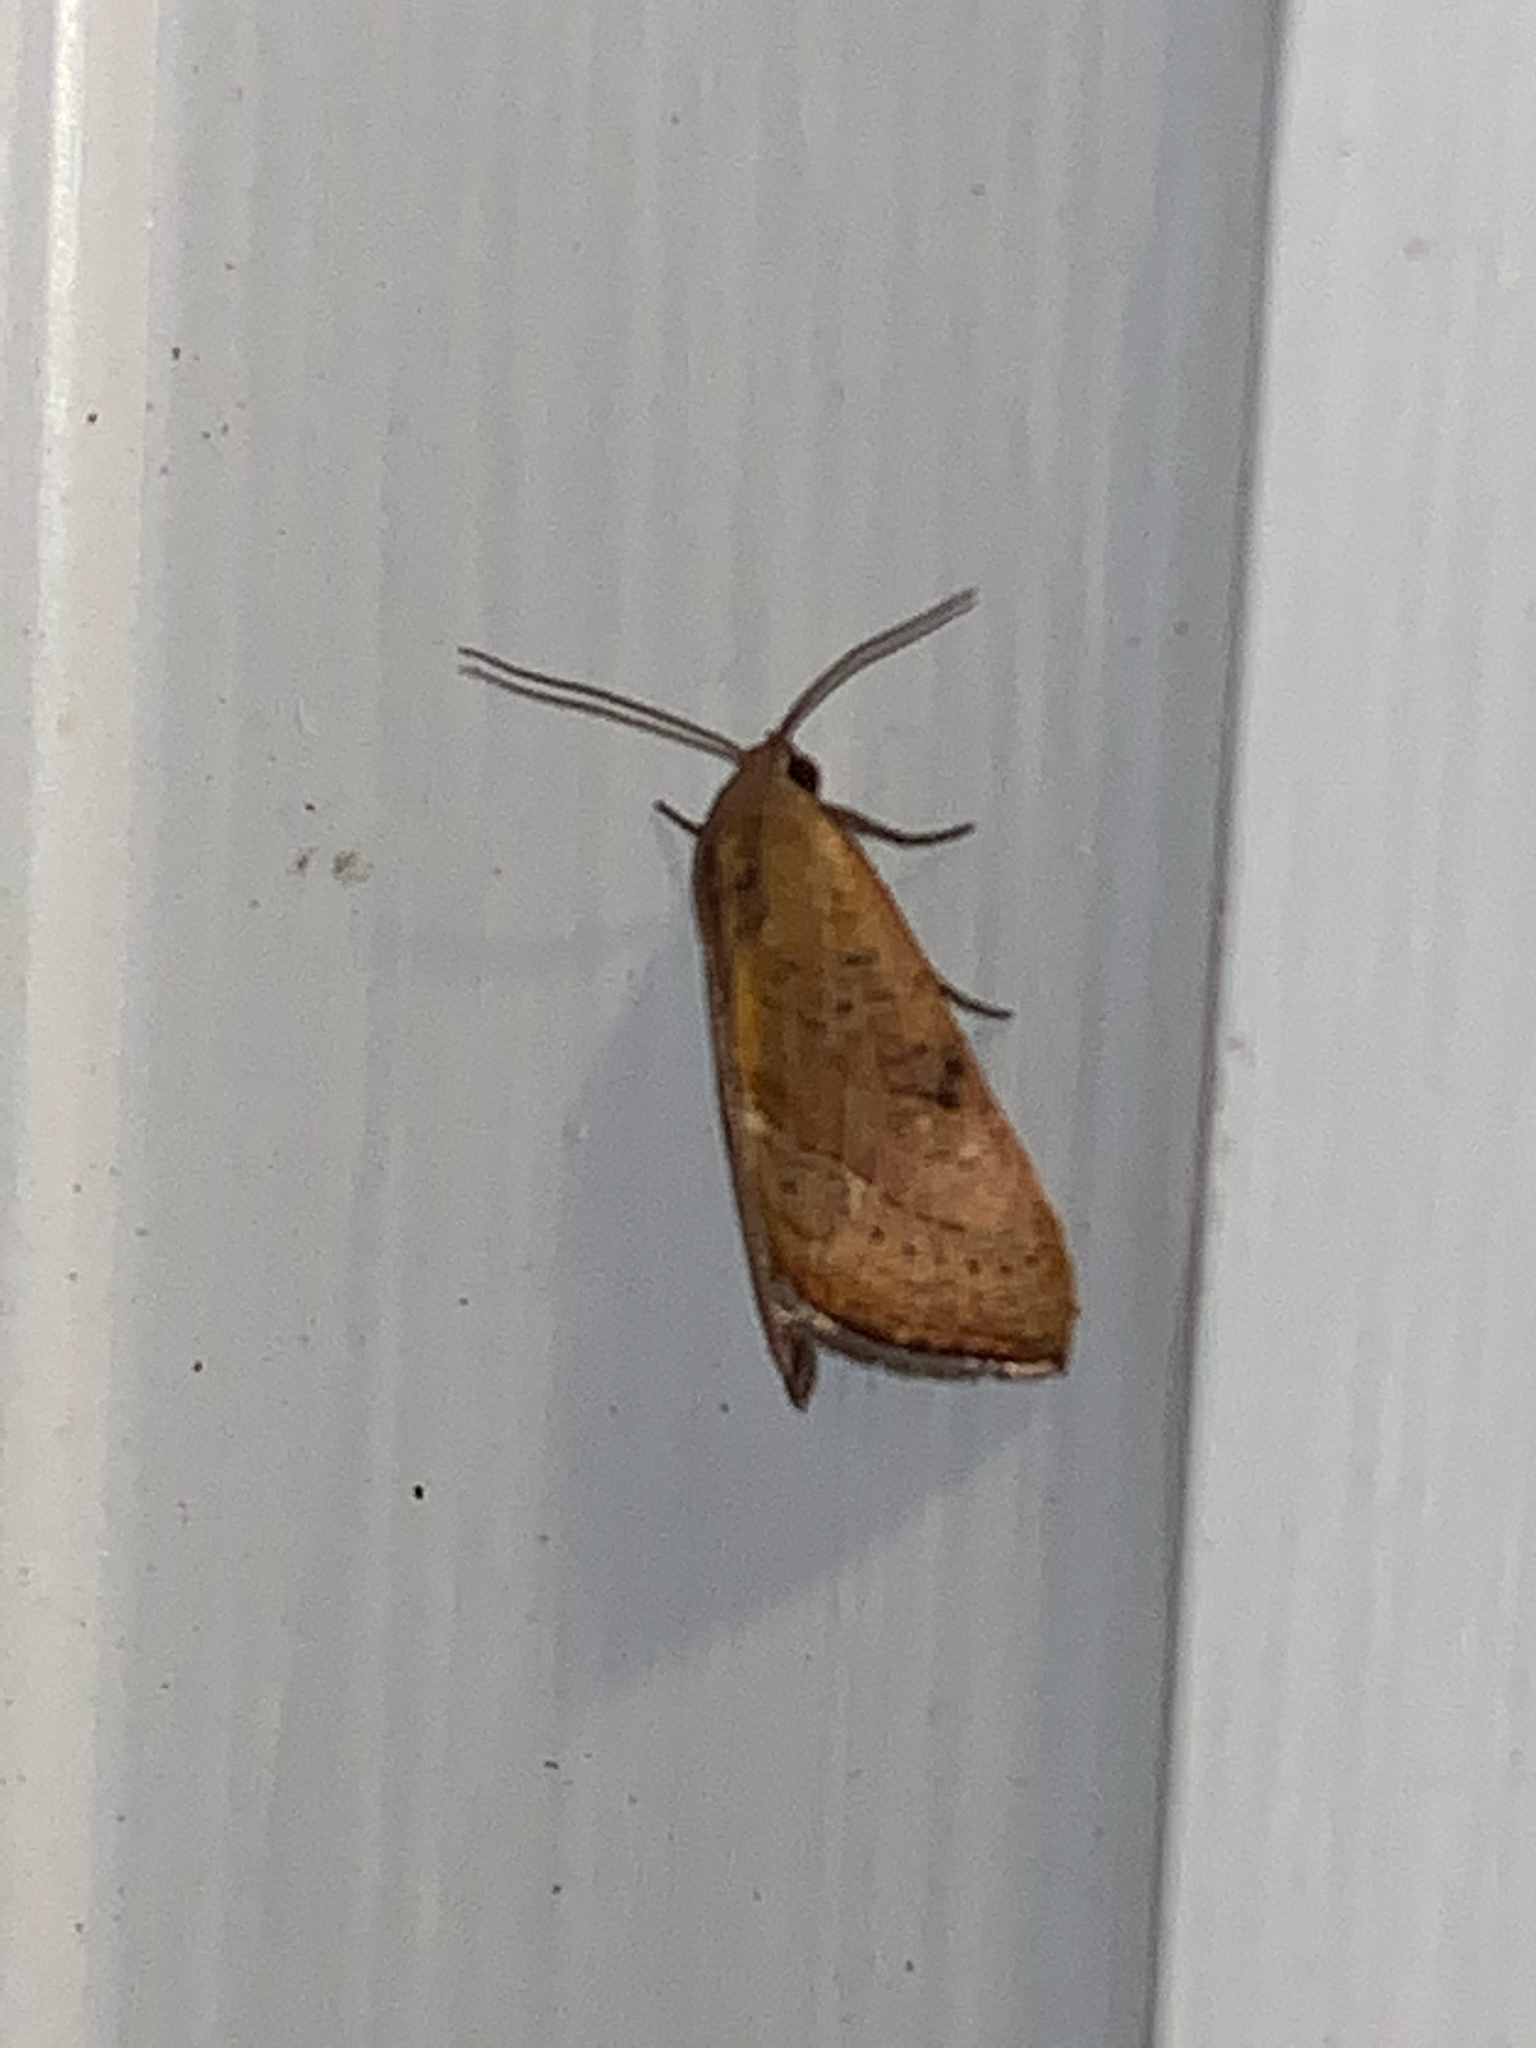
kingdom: Animalia
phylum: Arthropoda
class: Insecta
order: Lepidoptera
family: Noctuidae
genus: Galgula
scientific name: Galgula partita
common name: Wedgeling
